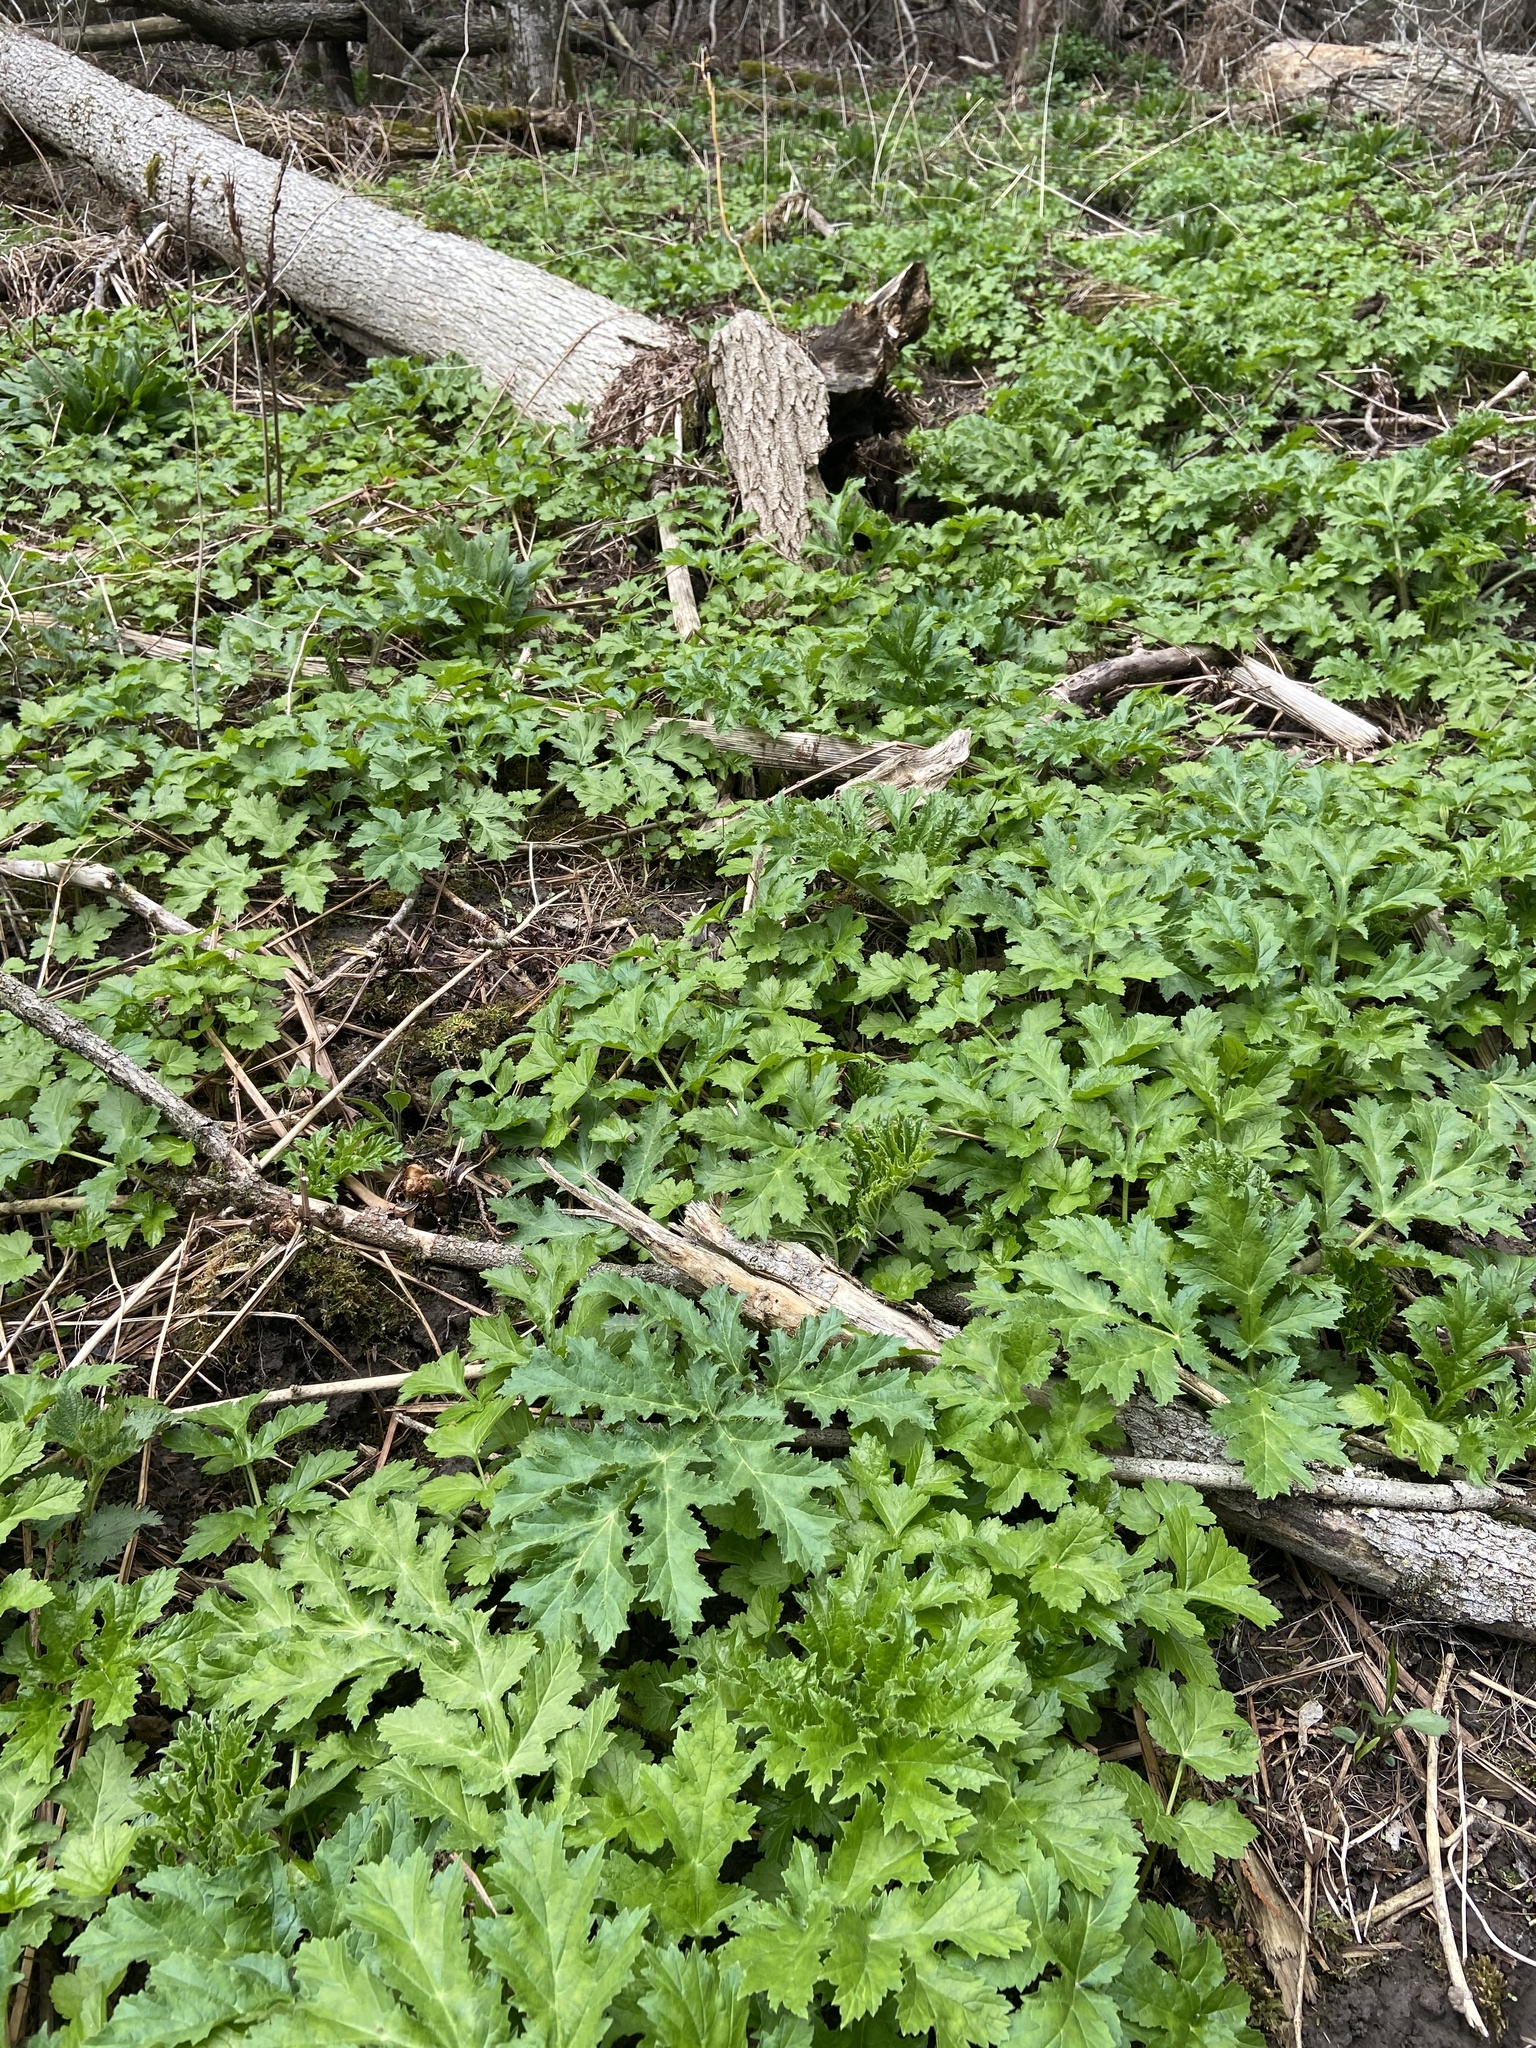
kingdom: Plantae
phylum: Tracheophyta
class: Magnoliopsida
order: Apiales
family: Apiaceae
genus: Heracleum
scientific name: Heracleum mantegazzianum
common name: Giant hogweed
